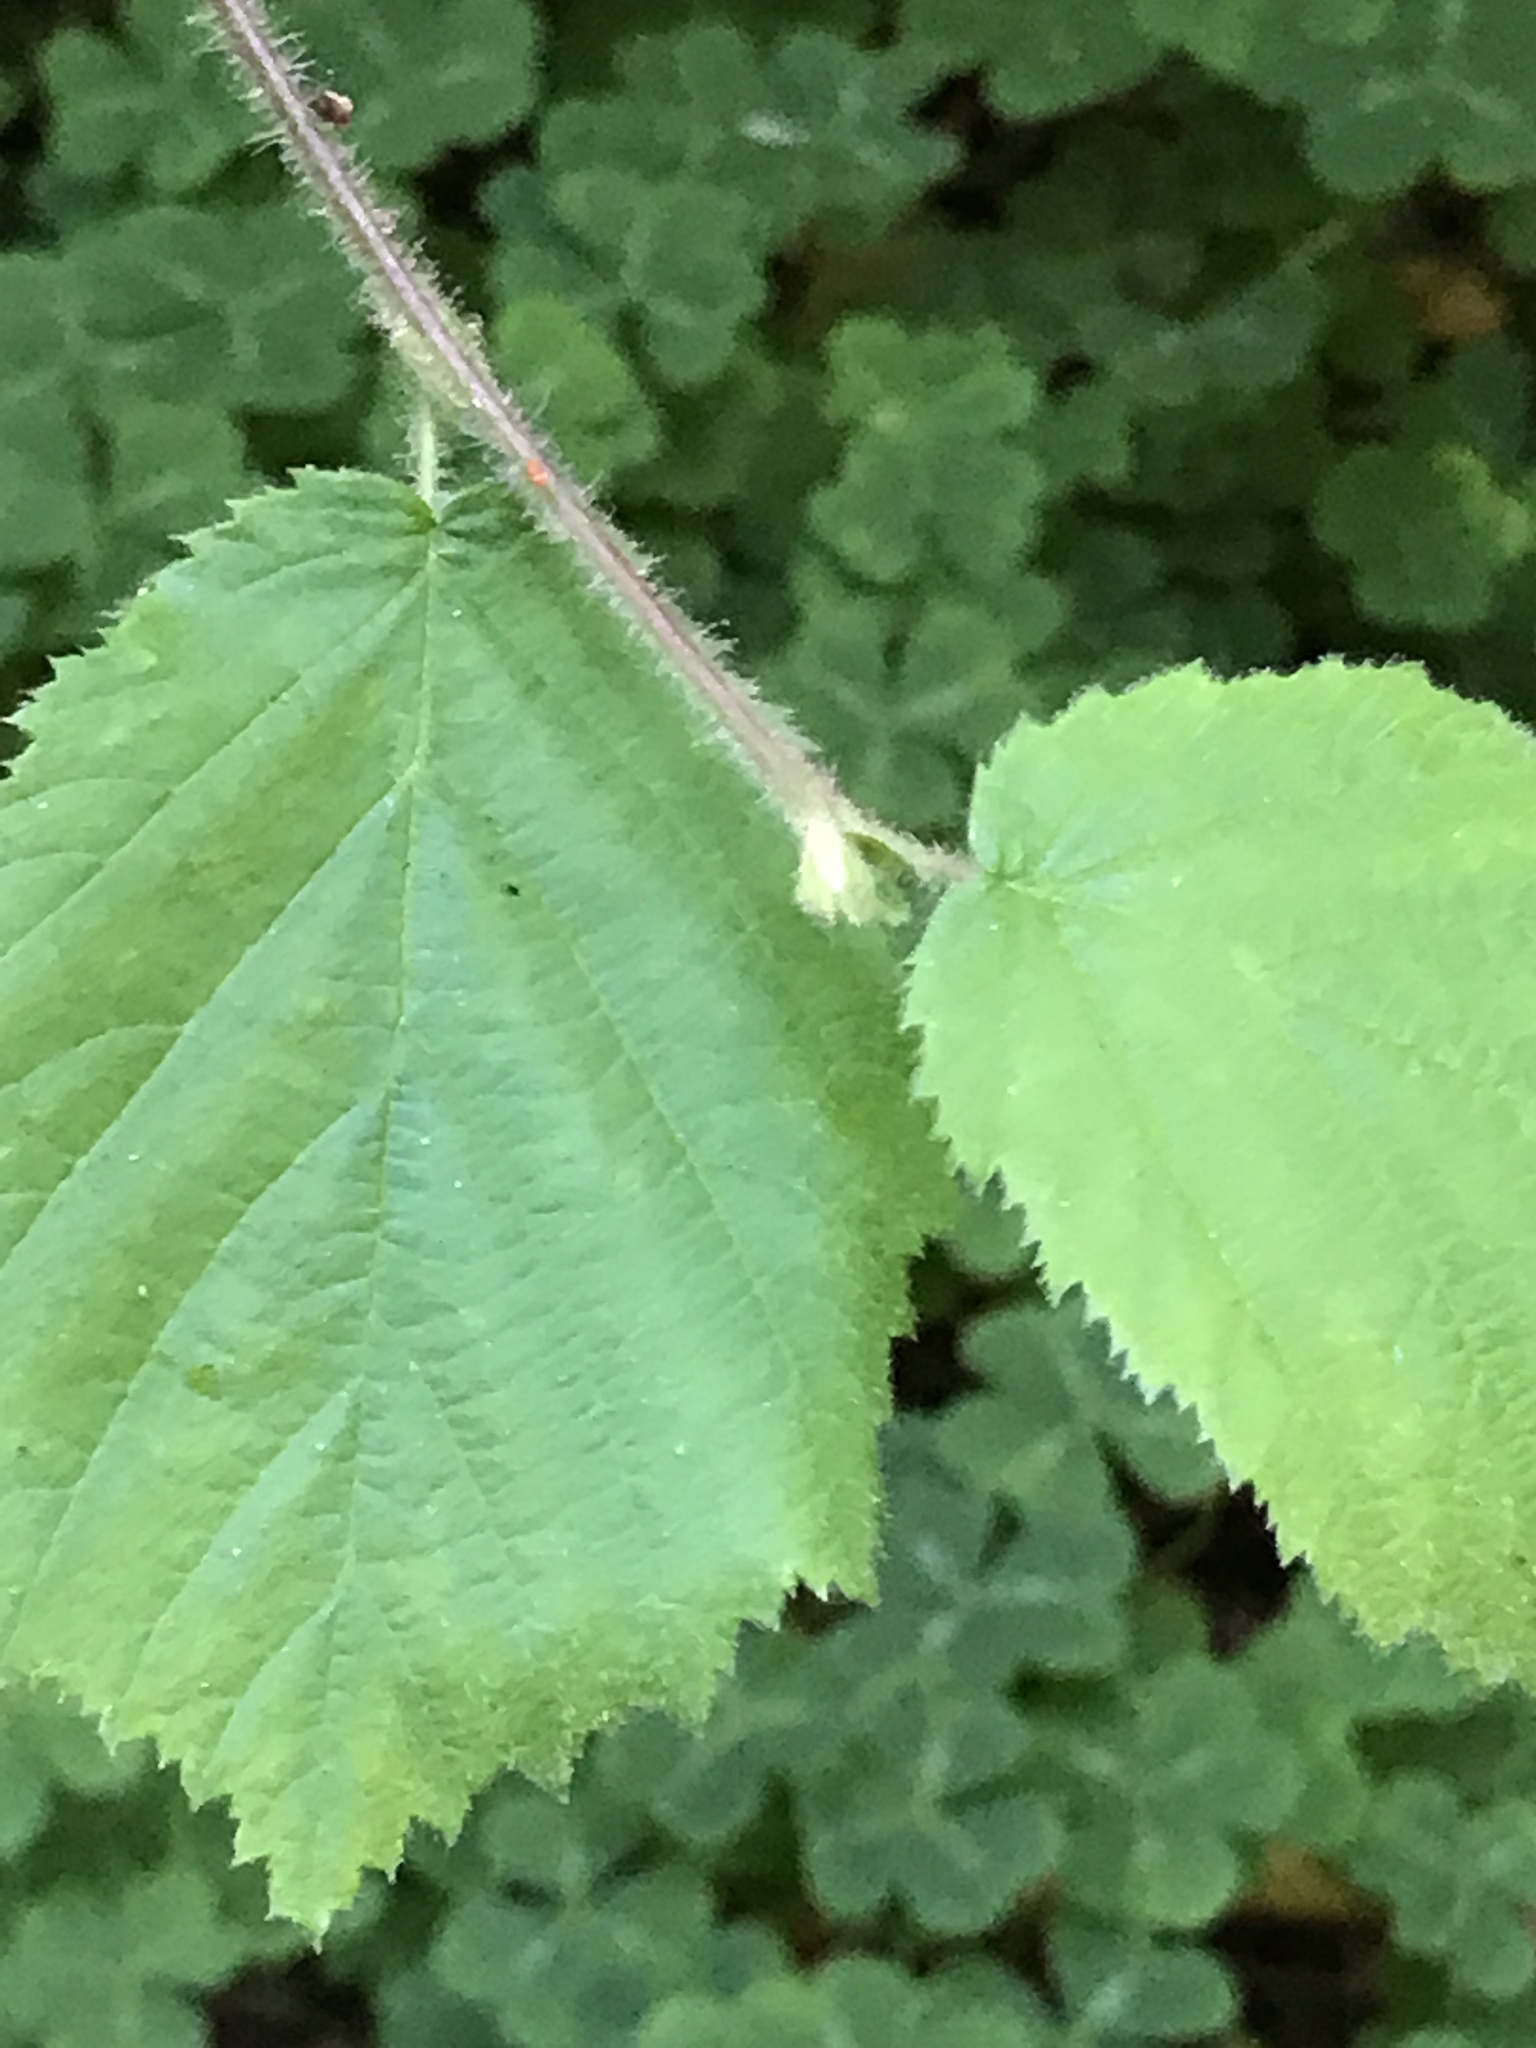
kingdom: Plantae
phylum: Tracheophyta
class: Magnoliopsida
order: Fagales
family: Betulaceae
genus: Corylus
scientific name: Corylus cornuta
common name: Beaked hazel
